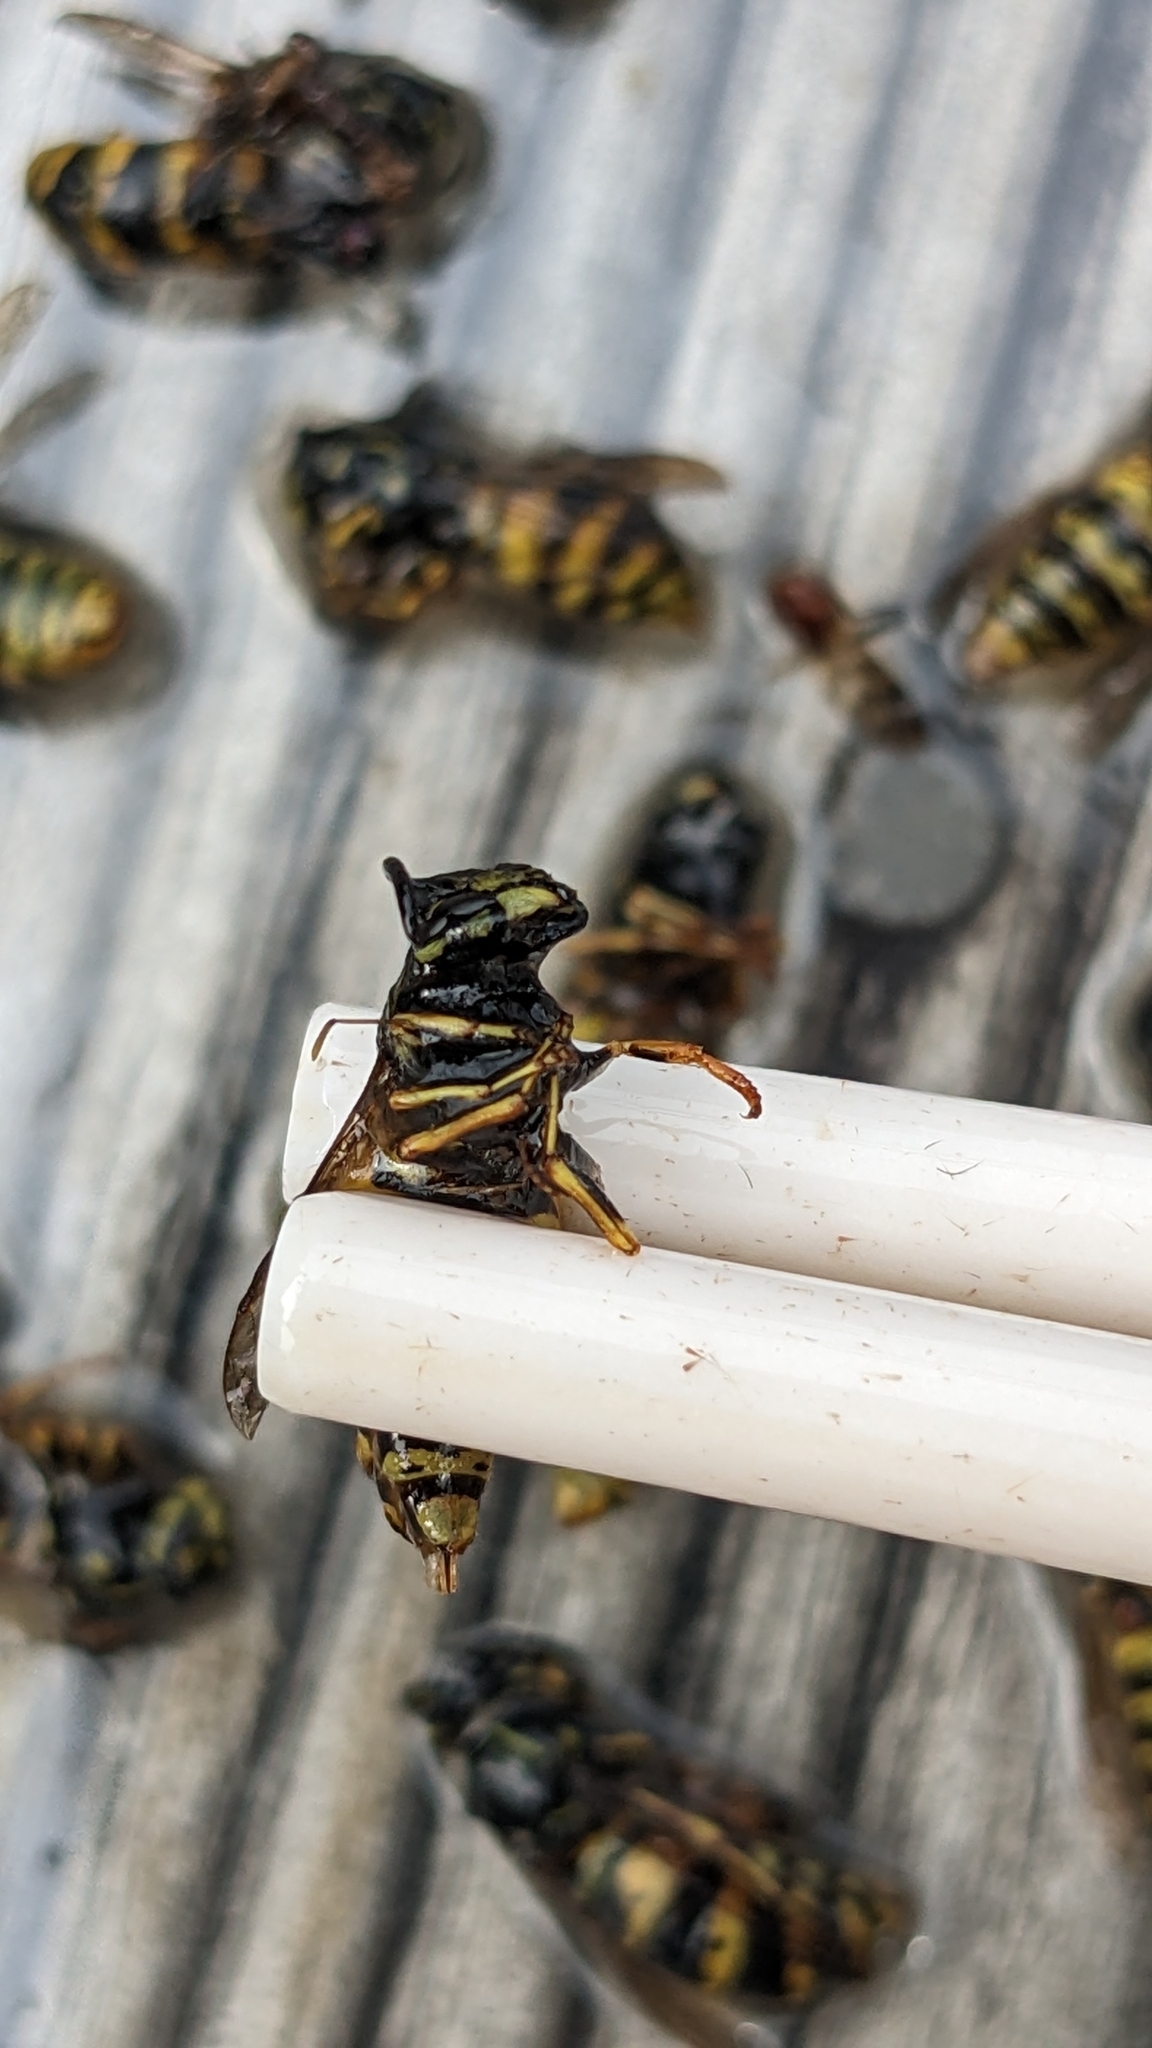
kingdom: Animalia
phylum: Arthropoda
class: Insecta
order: Hymenoptera
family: Vespidae
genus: Vespula
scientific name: Vespula vulgaris
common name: Common wasp
